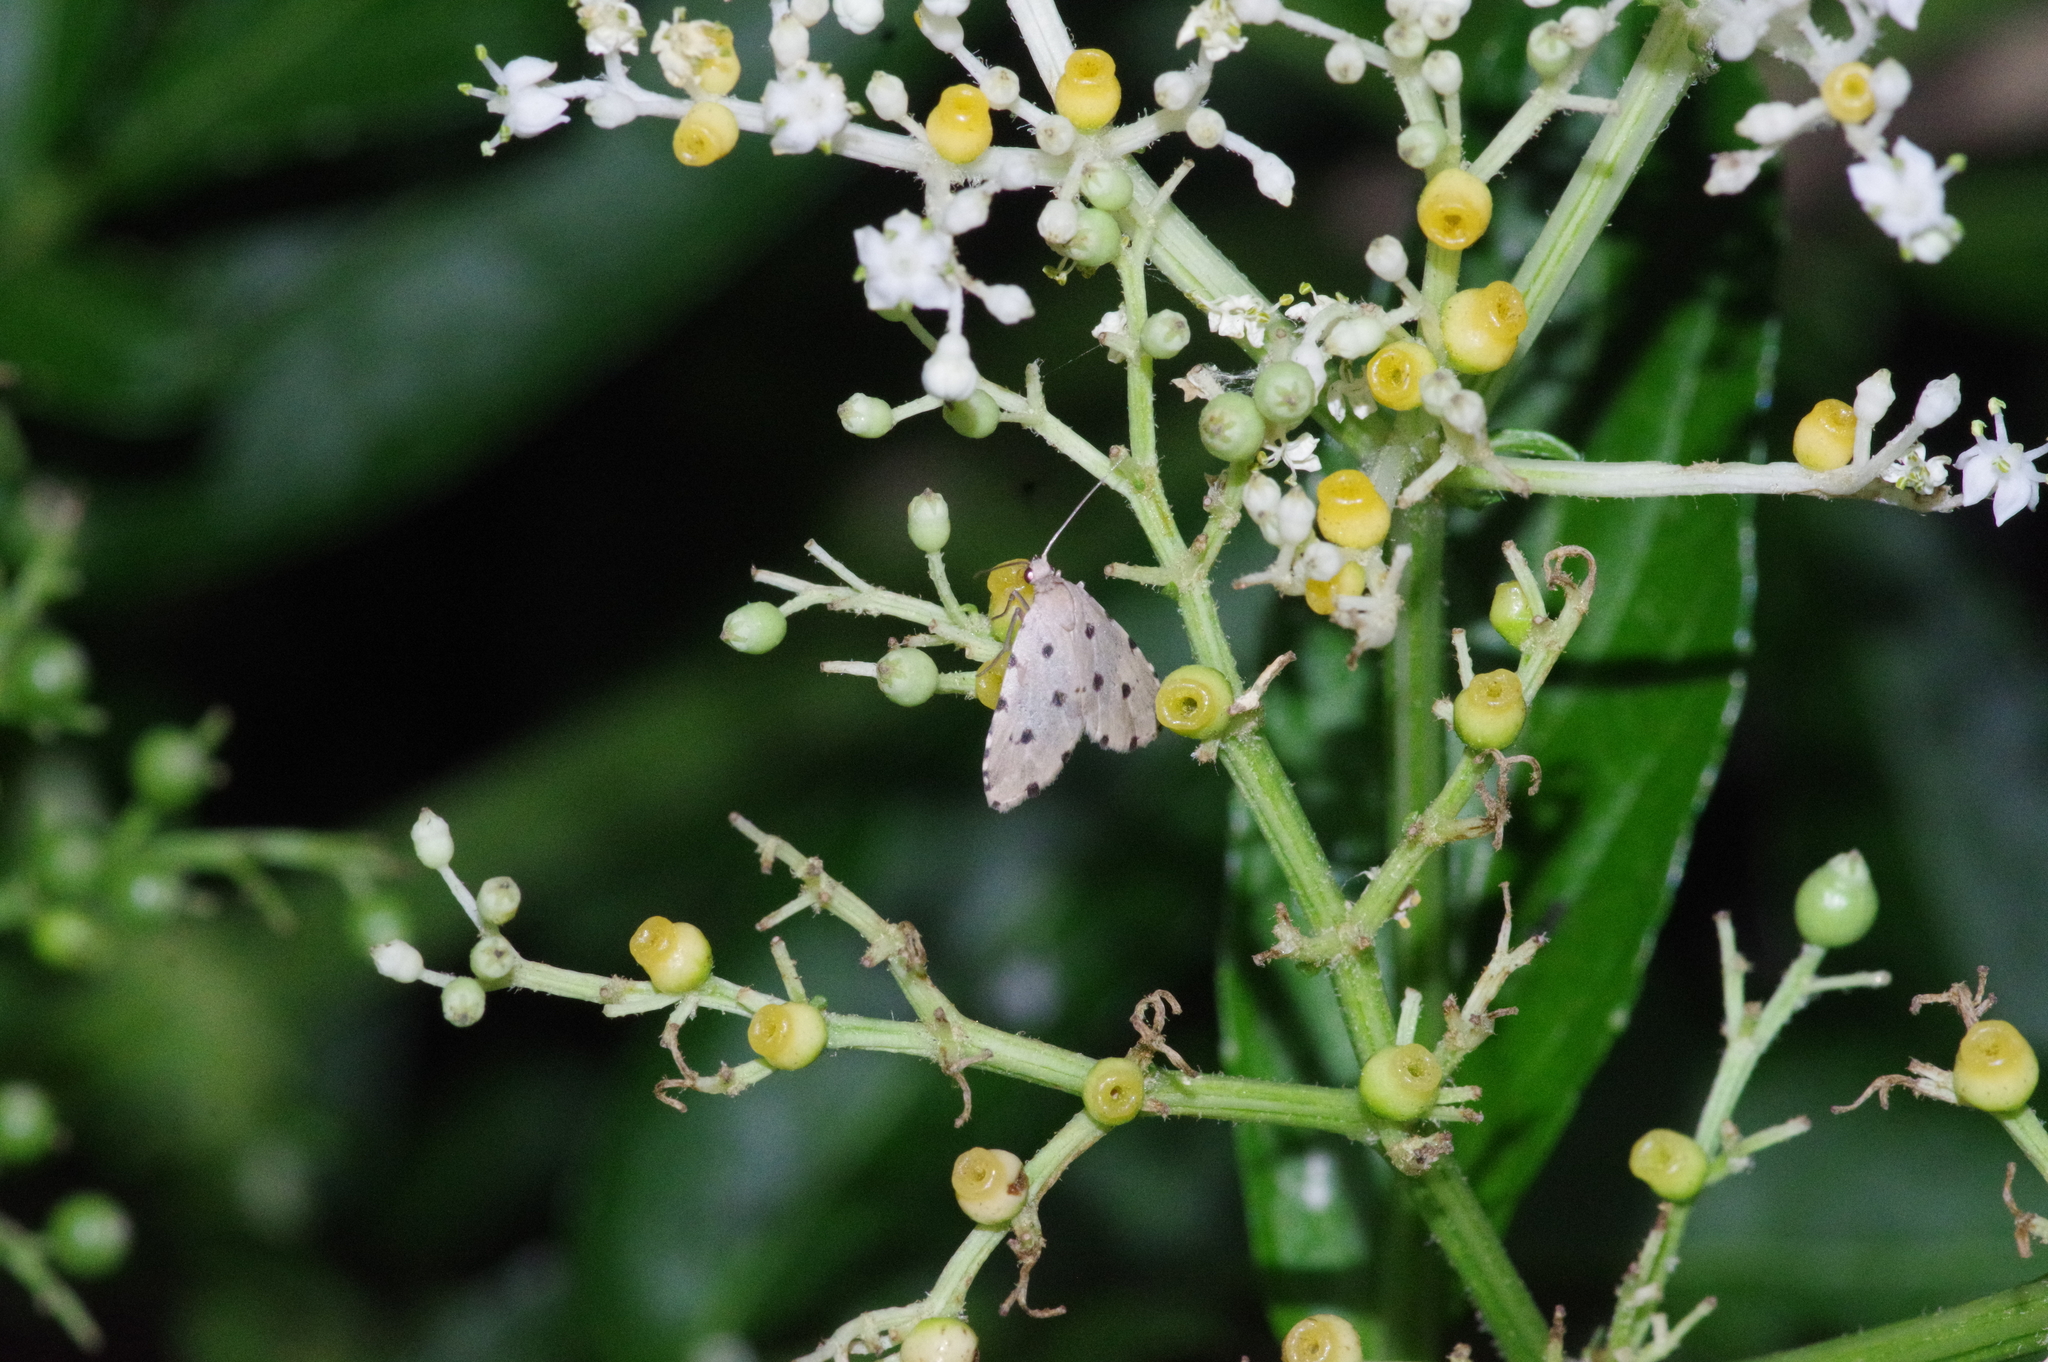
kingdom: Animalia
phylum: Arthropoda
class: Insecta
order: Lepidoptera
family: Noctuidae
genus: Metaemene
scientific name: Metaemene atrigutta
